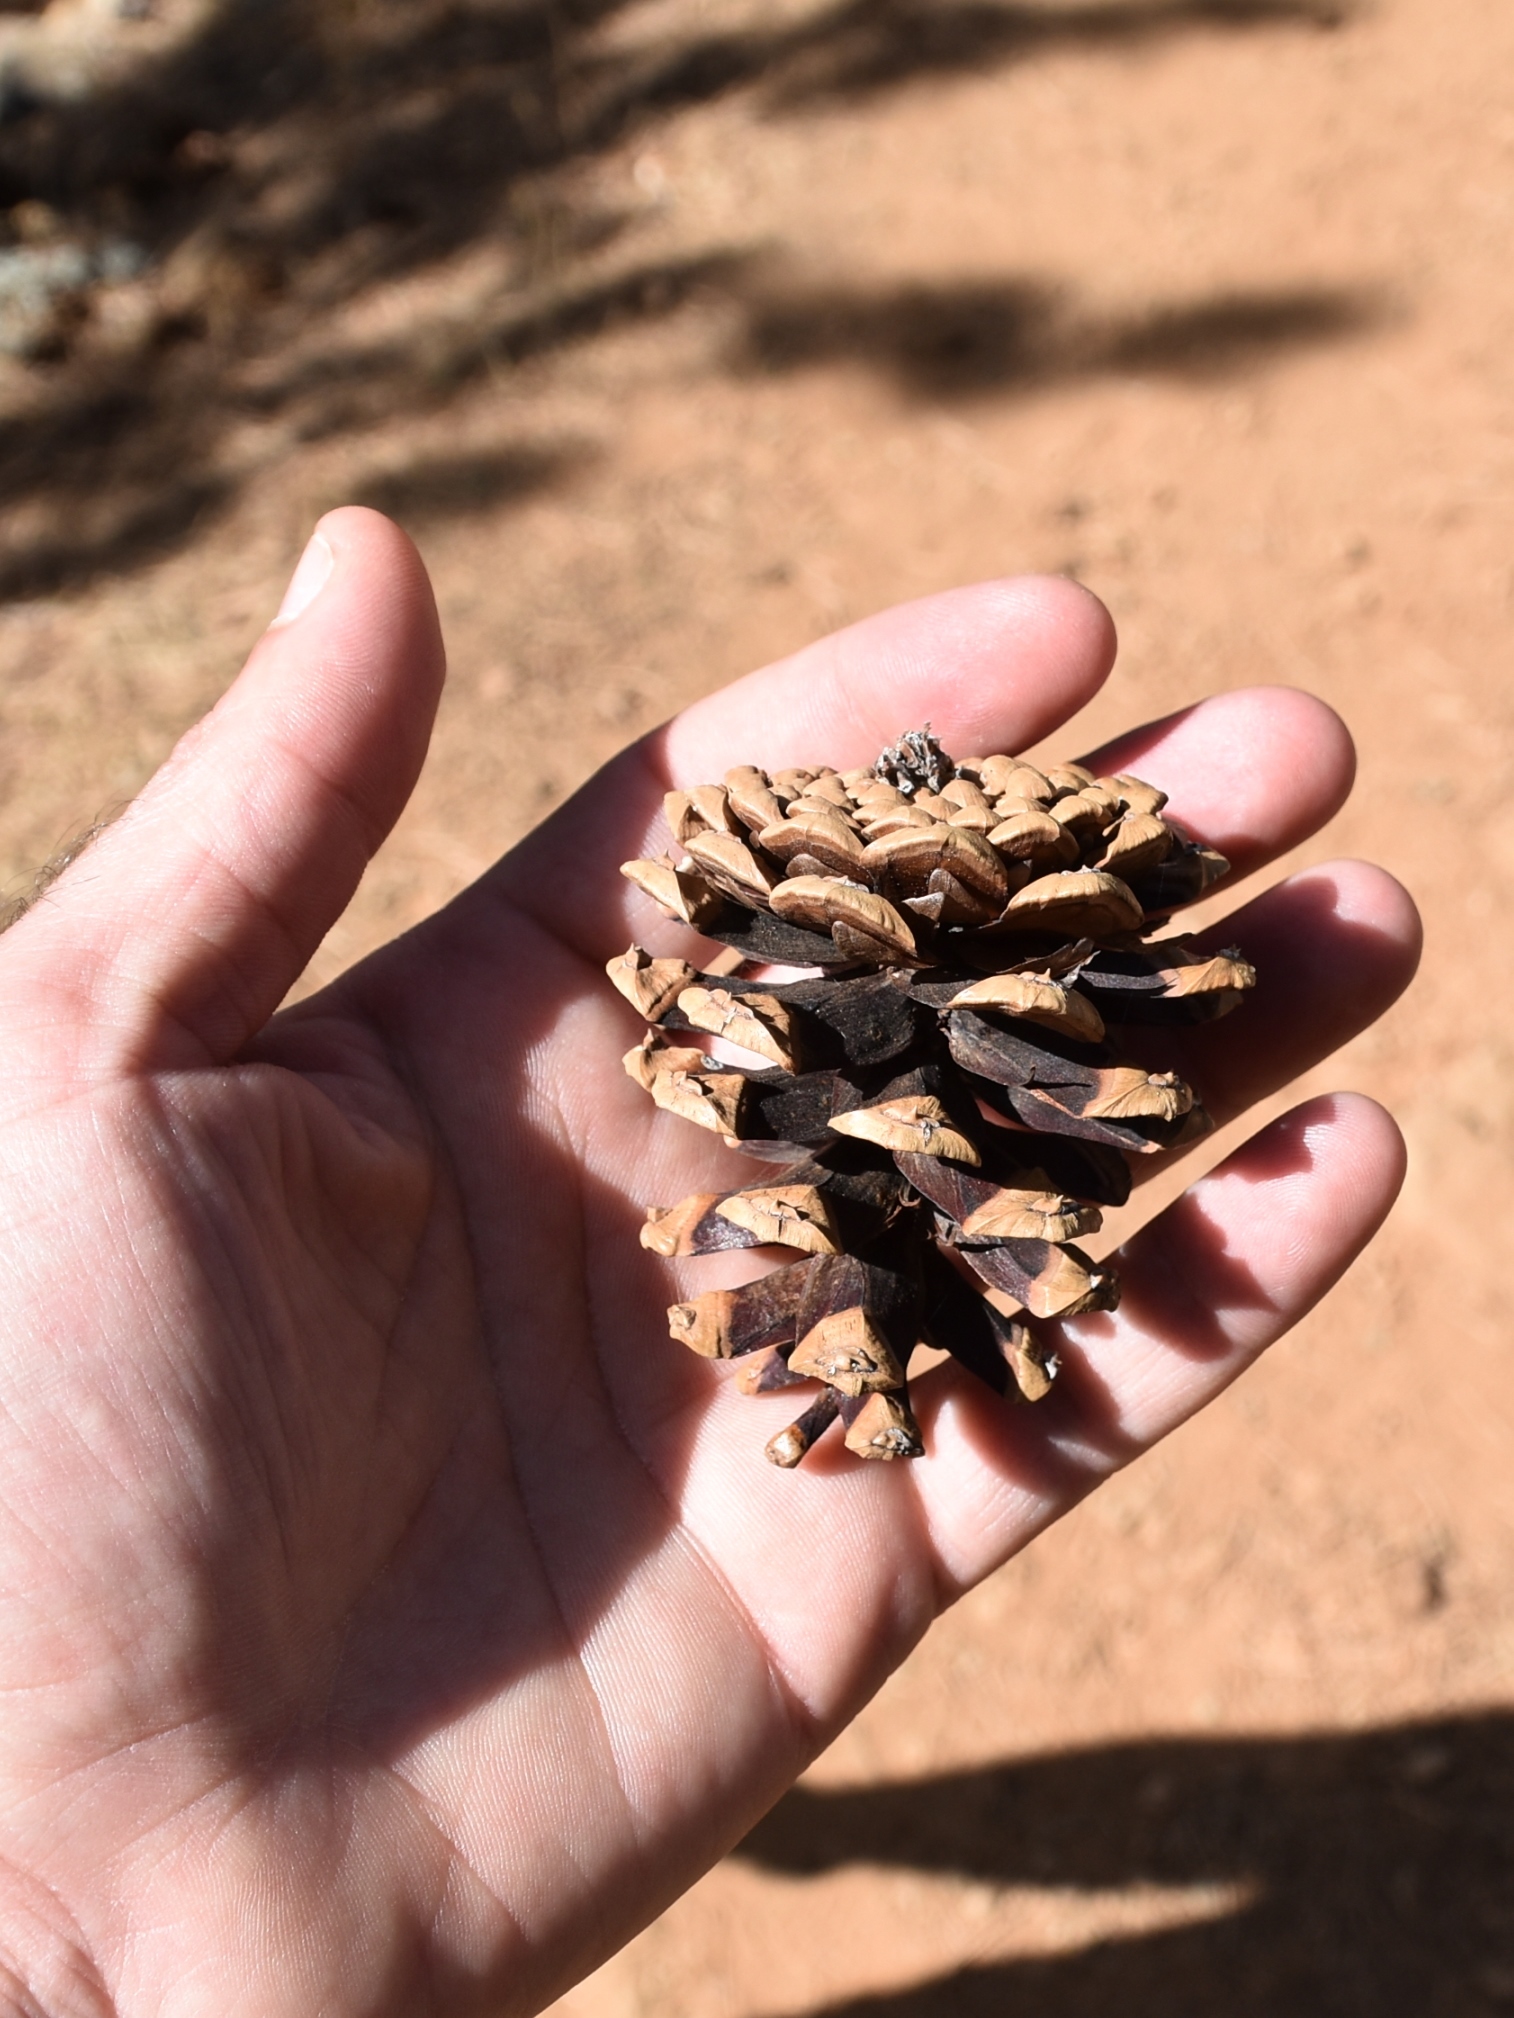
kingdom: Plantae
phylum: Tracheophyta
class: Pinopsida
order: Pinales
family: Pinaceae
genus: Pinus
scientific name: Pinus nigra
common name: Austrian pine
